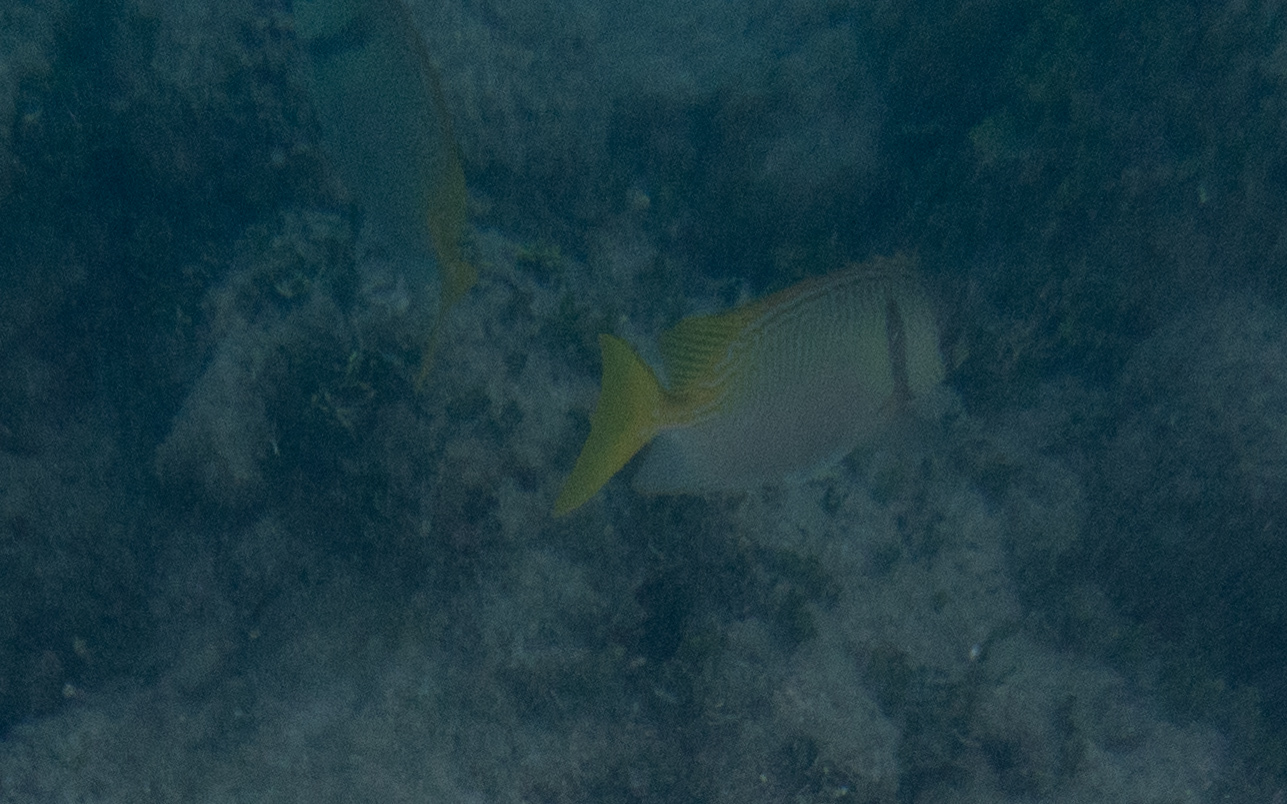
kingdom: Animalia
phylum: Chordata
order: Perciformes
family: Siganidae
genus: Siganus
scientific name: Siganus doliatus
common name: Barred spinefoot
